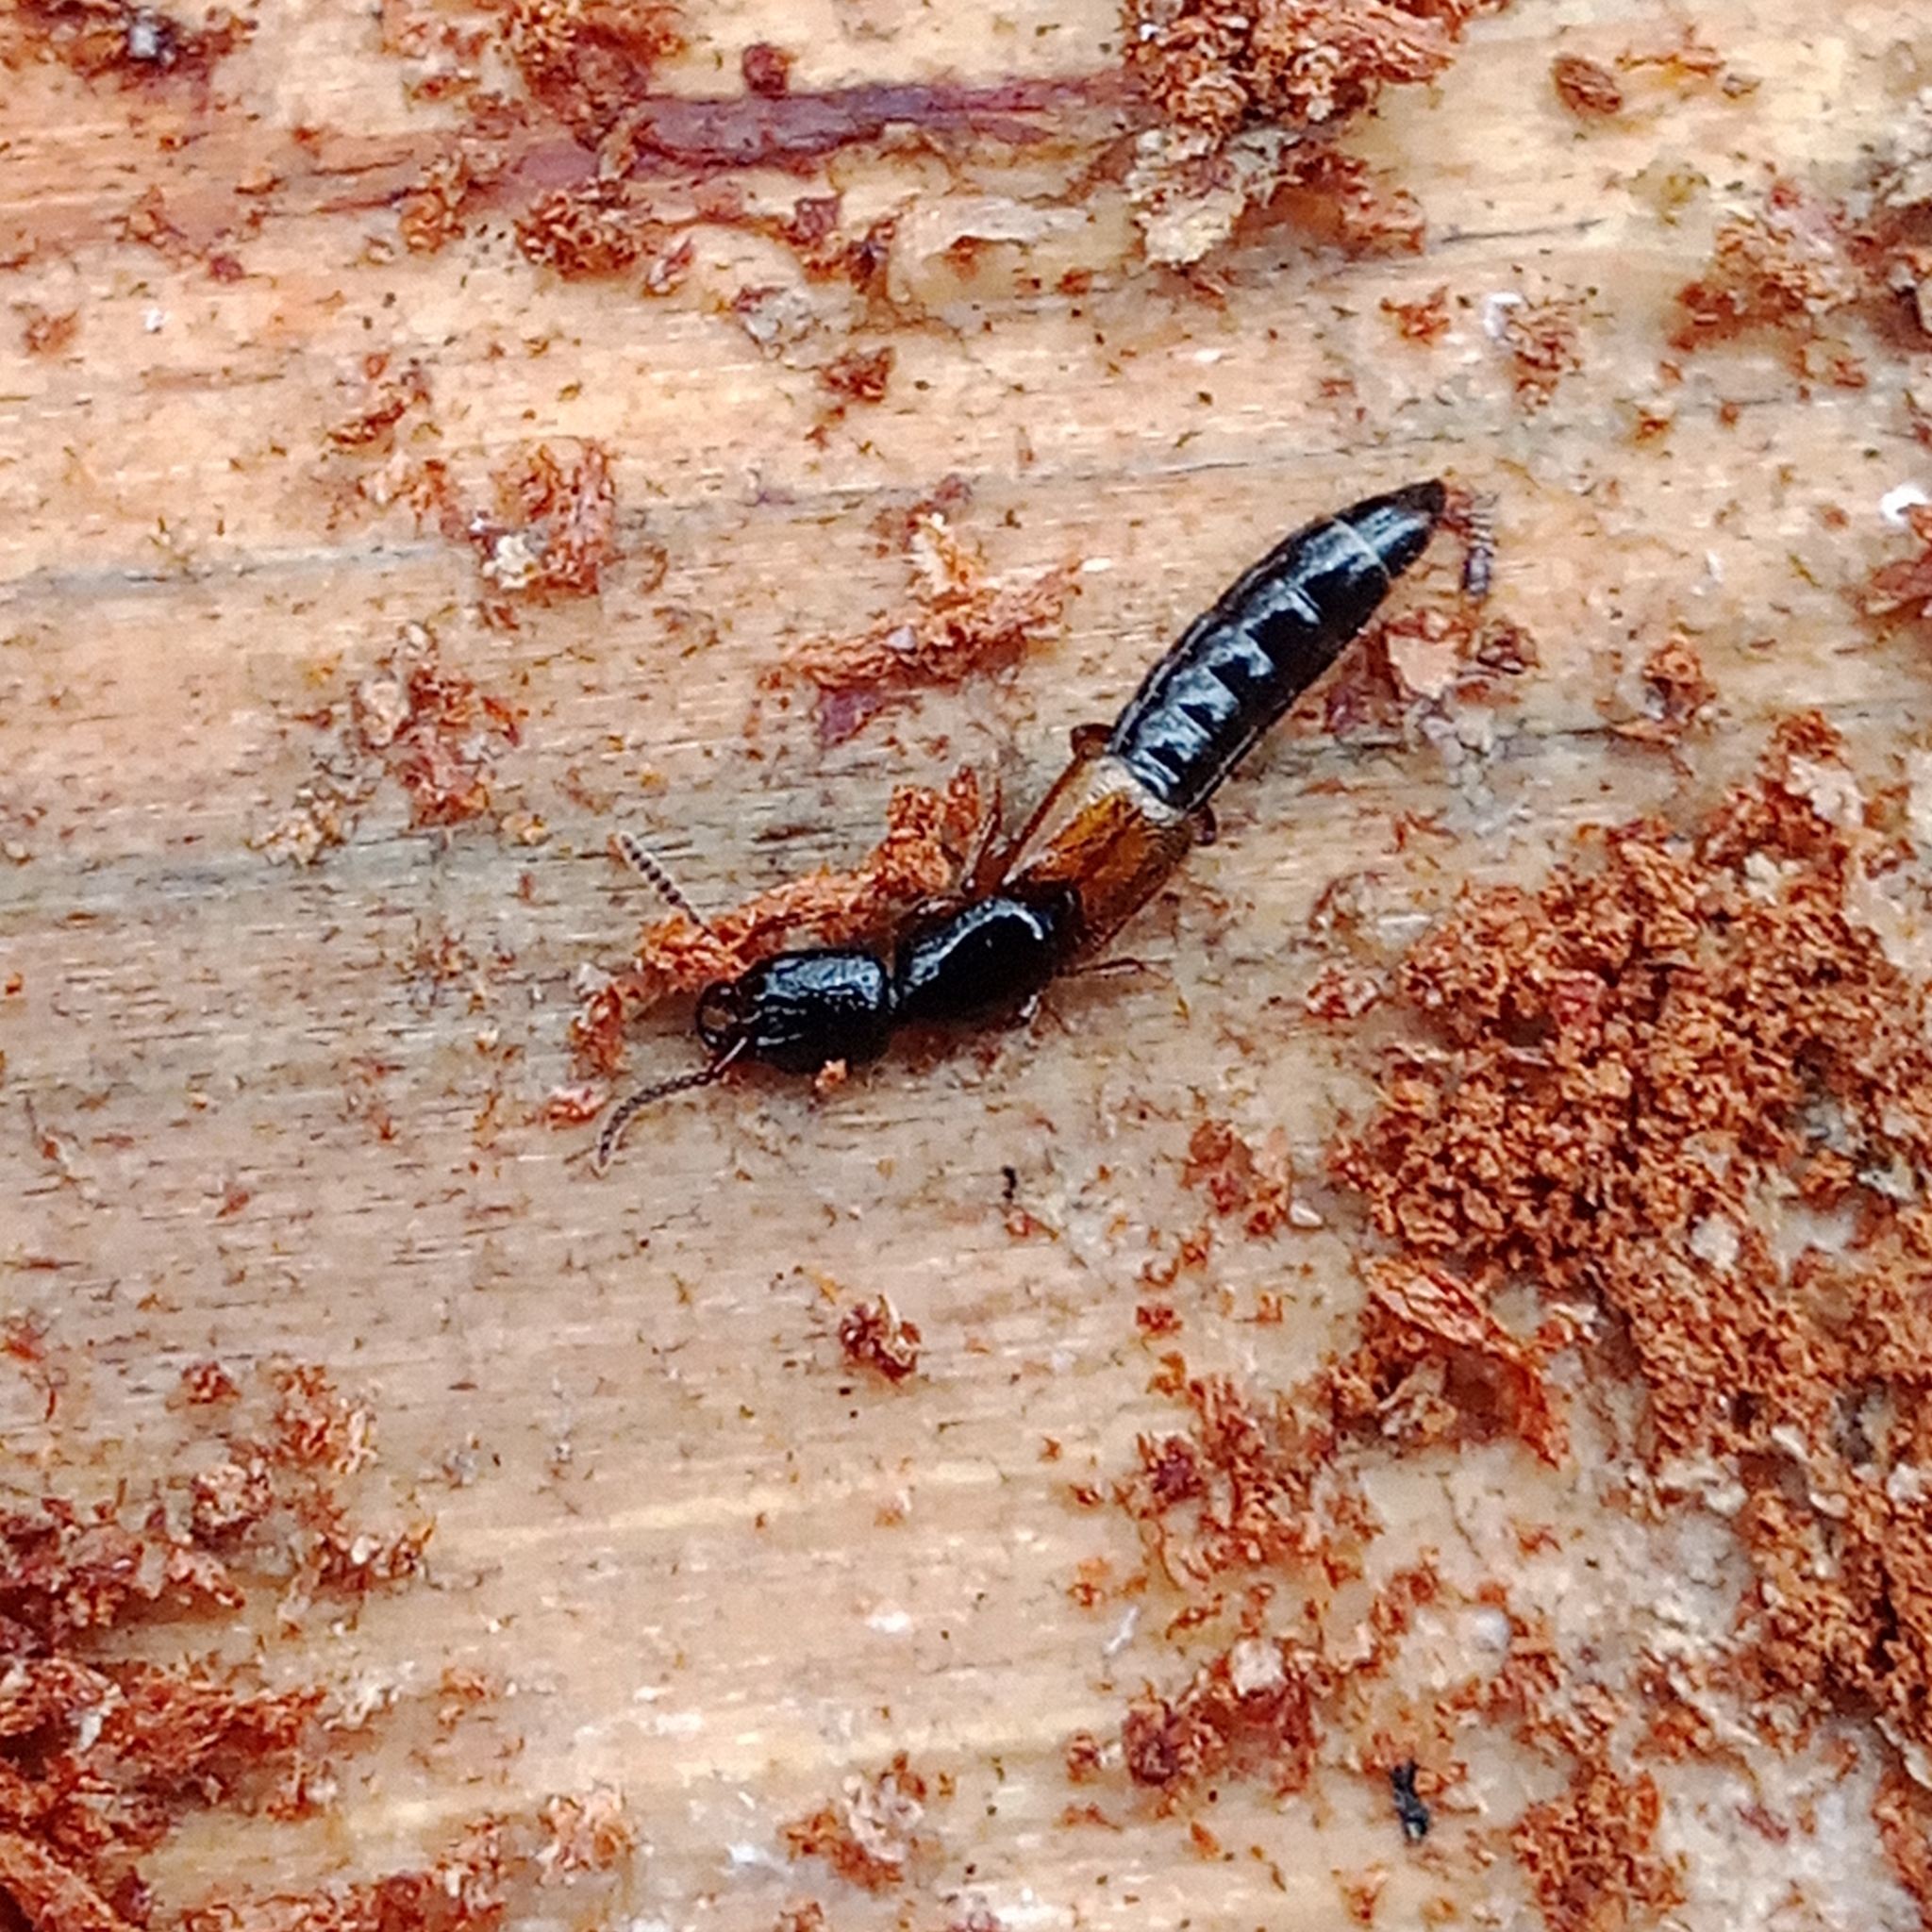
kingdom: Animalia
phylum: Arthropoda
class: Insecta
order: Coleoptera
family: Staphylinidae
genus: Nudobius
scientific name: Nudobius lentus
